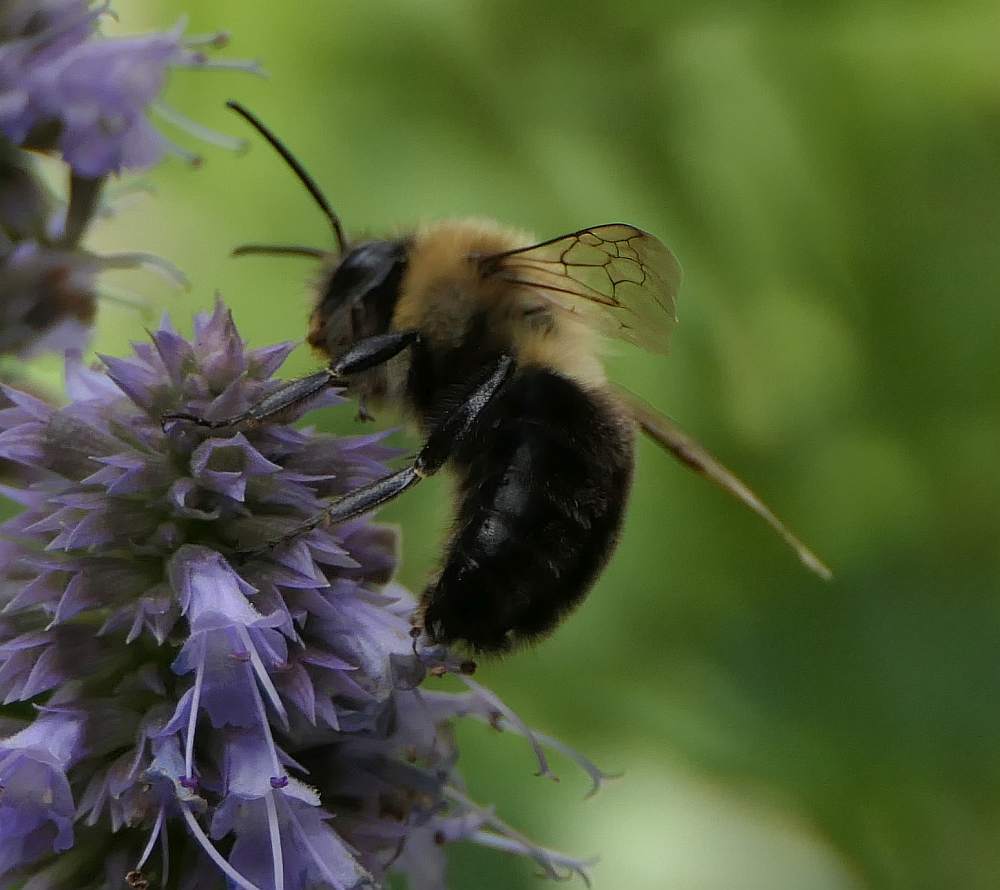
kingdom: Animalia
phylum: Arthropoda
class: Insecta
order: Hymenoptera
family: Apidae
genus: Bombus
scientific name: Bombus impatiens
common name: Common eastern bumble bee
